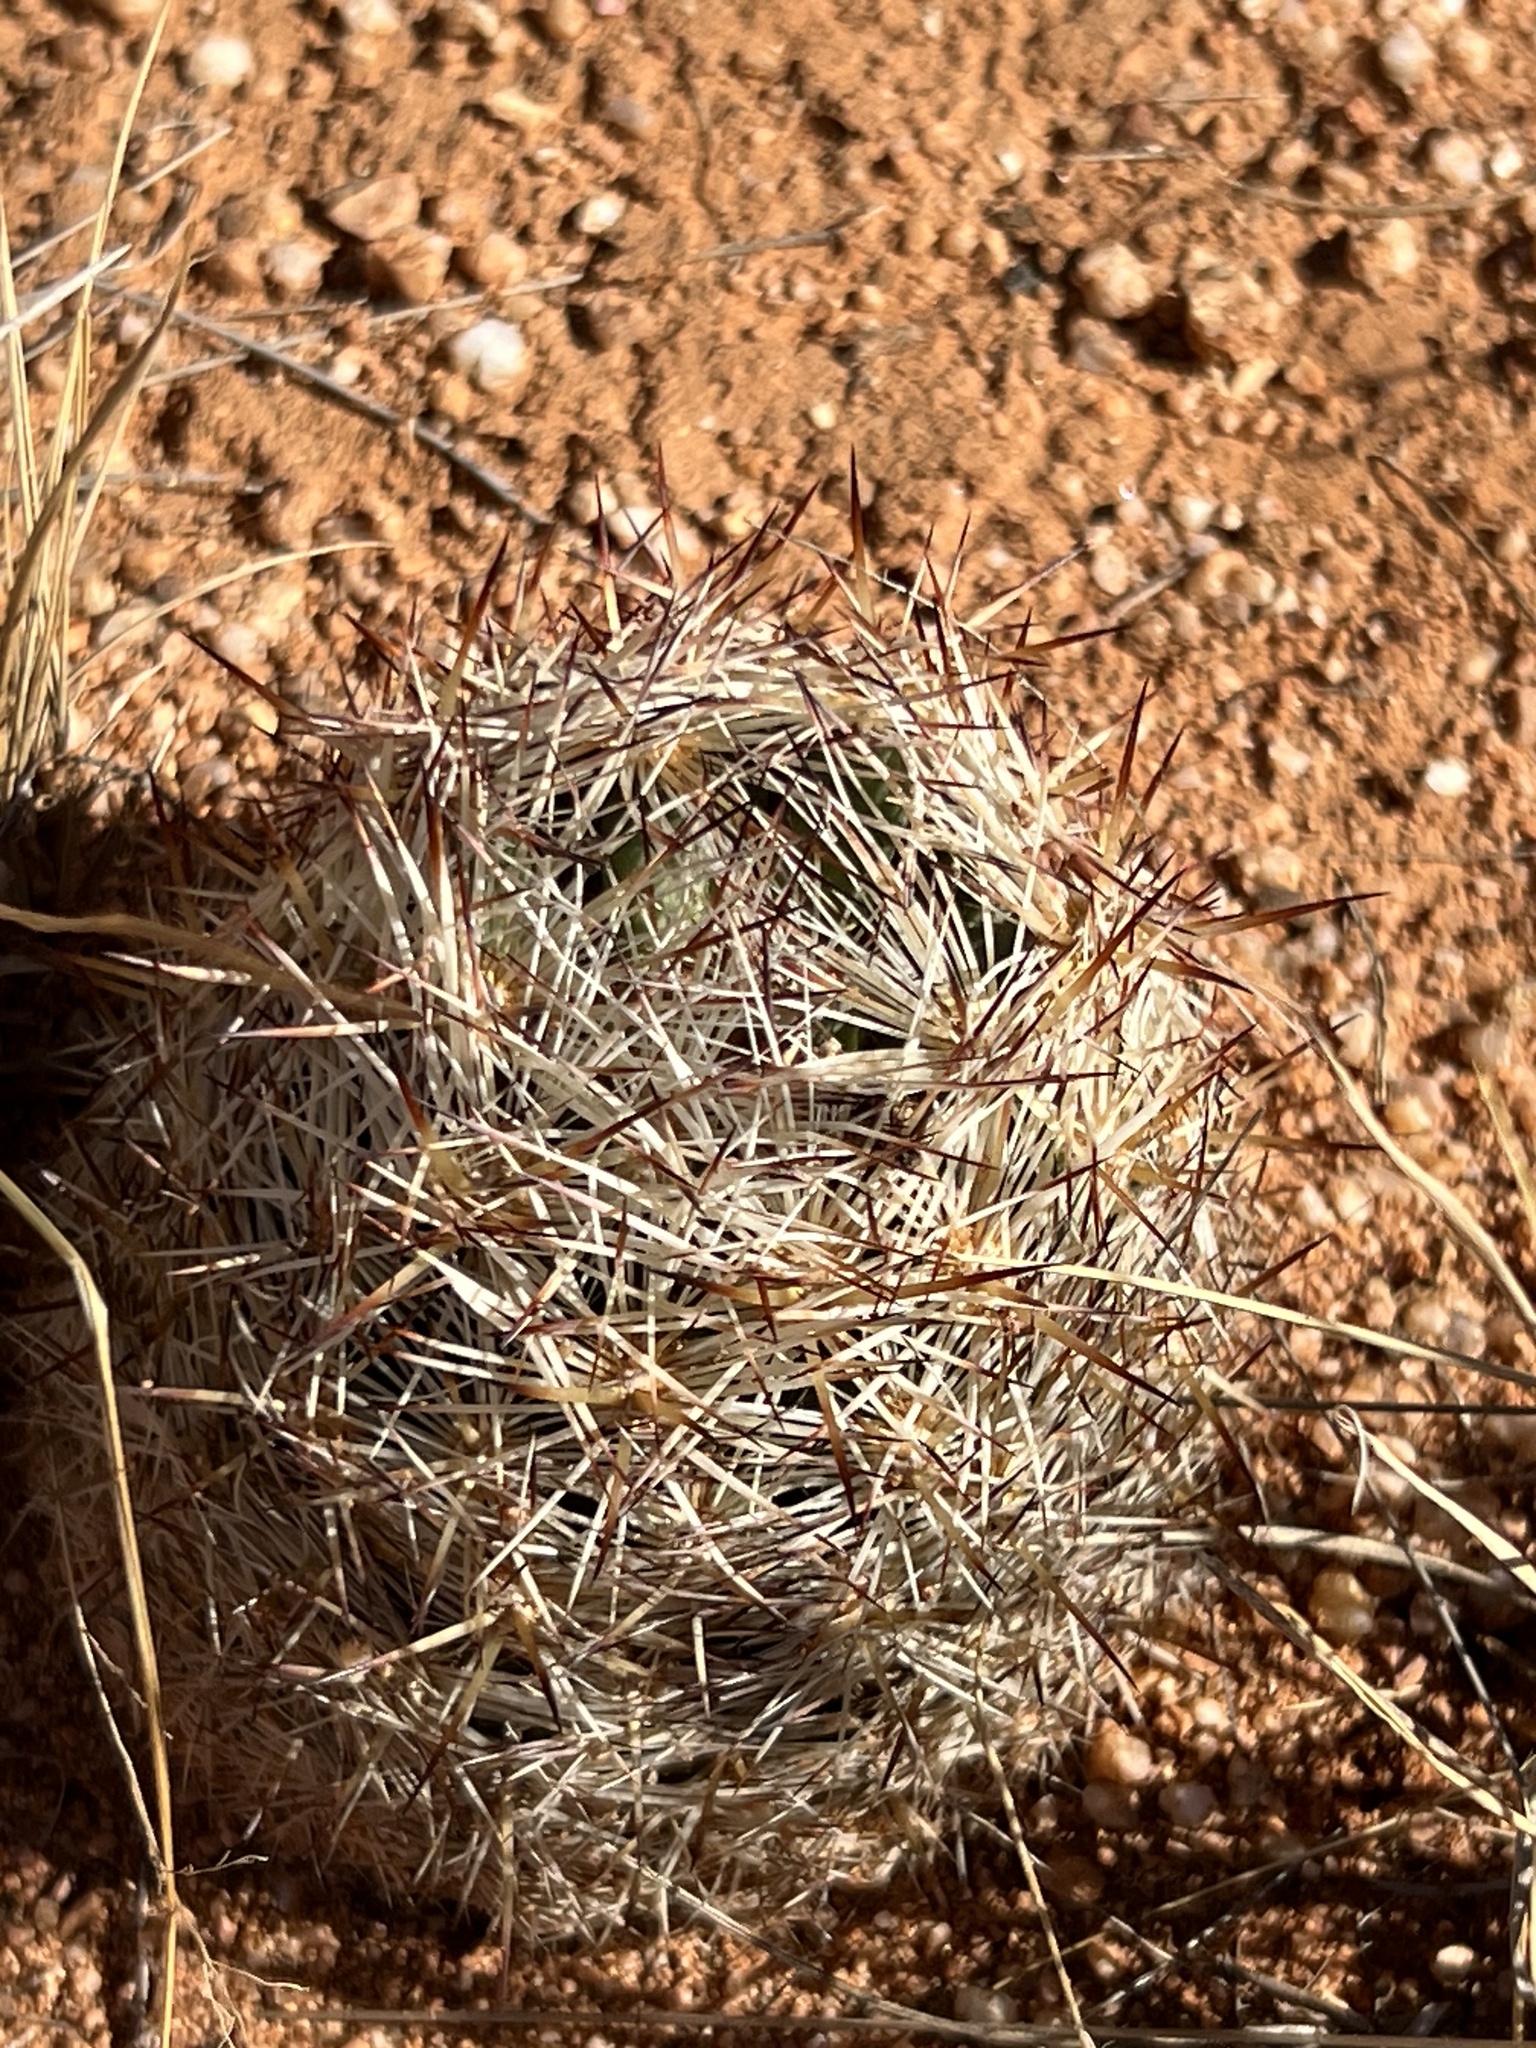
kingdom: Plantae
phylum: Tracheophyta
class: Magnoliopsida
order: Caryophyllales
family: Cactaceae
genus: Pelecyphora
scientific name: Pelecyphora vivipara
